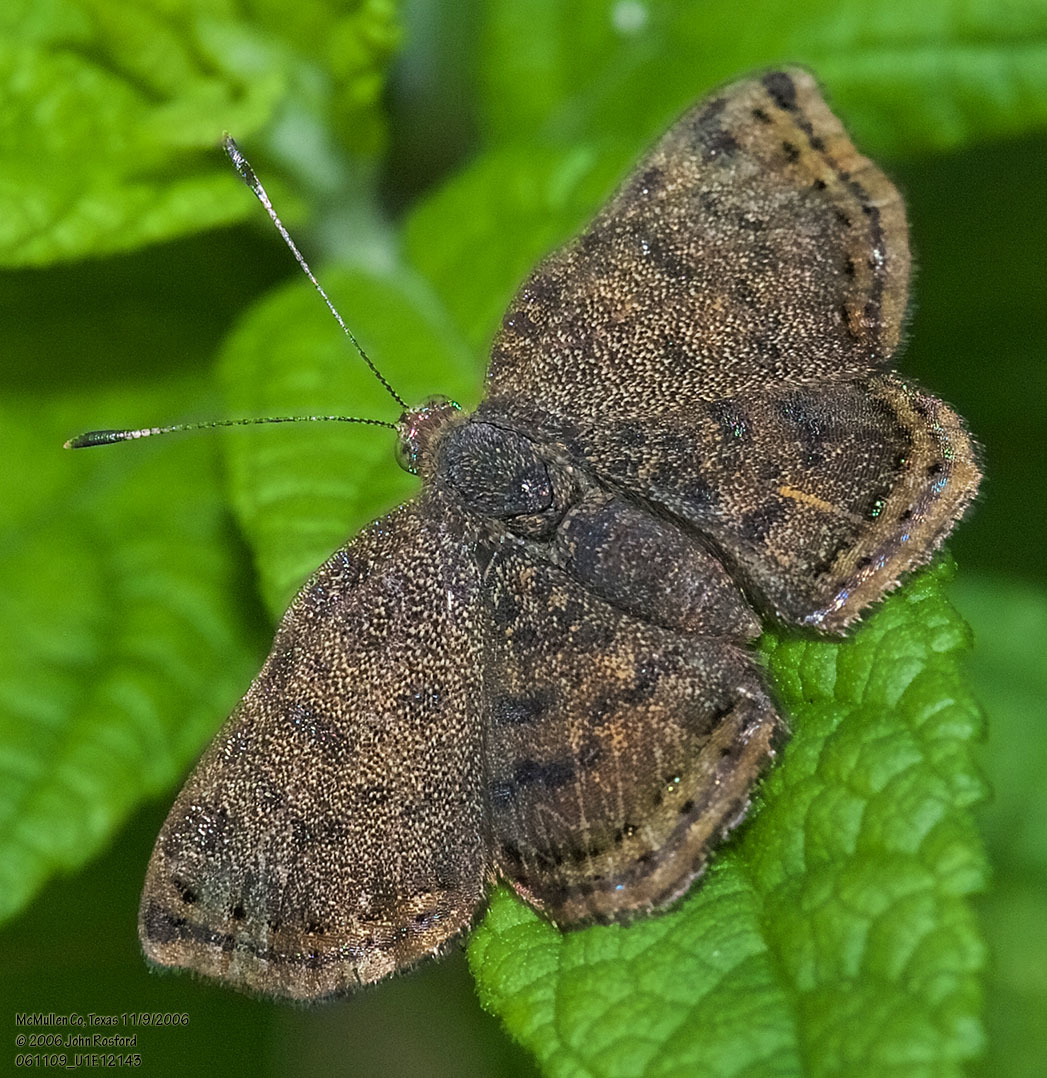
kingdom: Animalia
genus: Caria
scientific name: Caria ino
